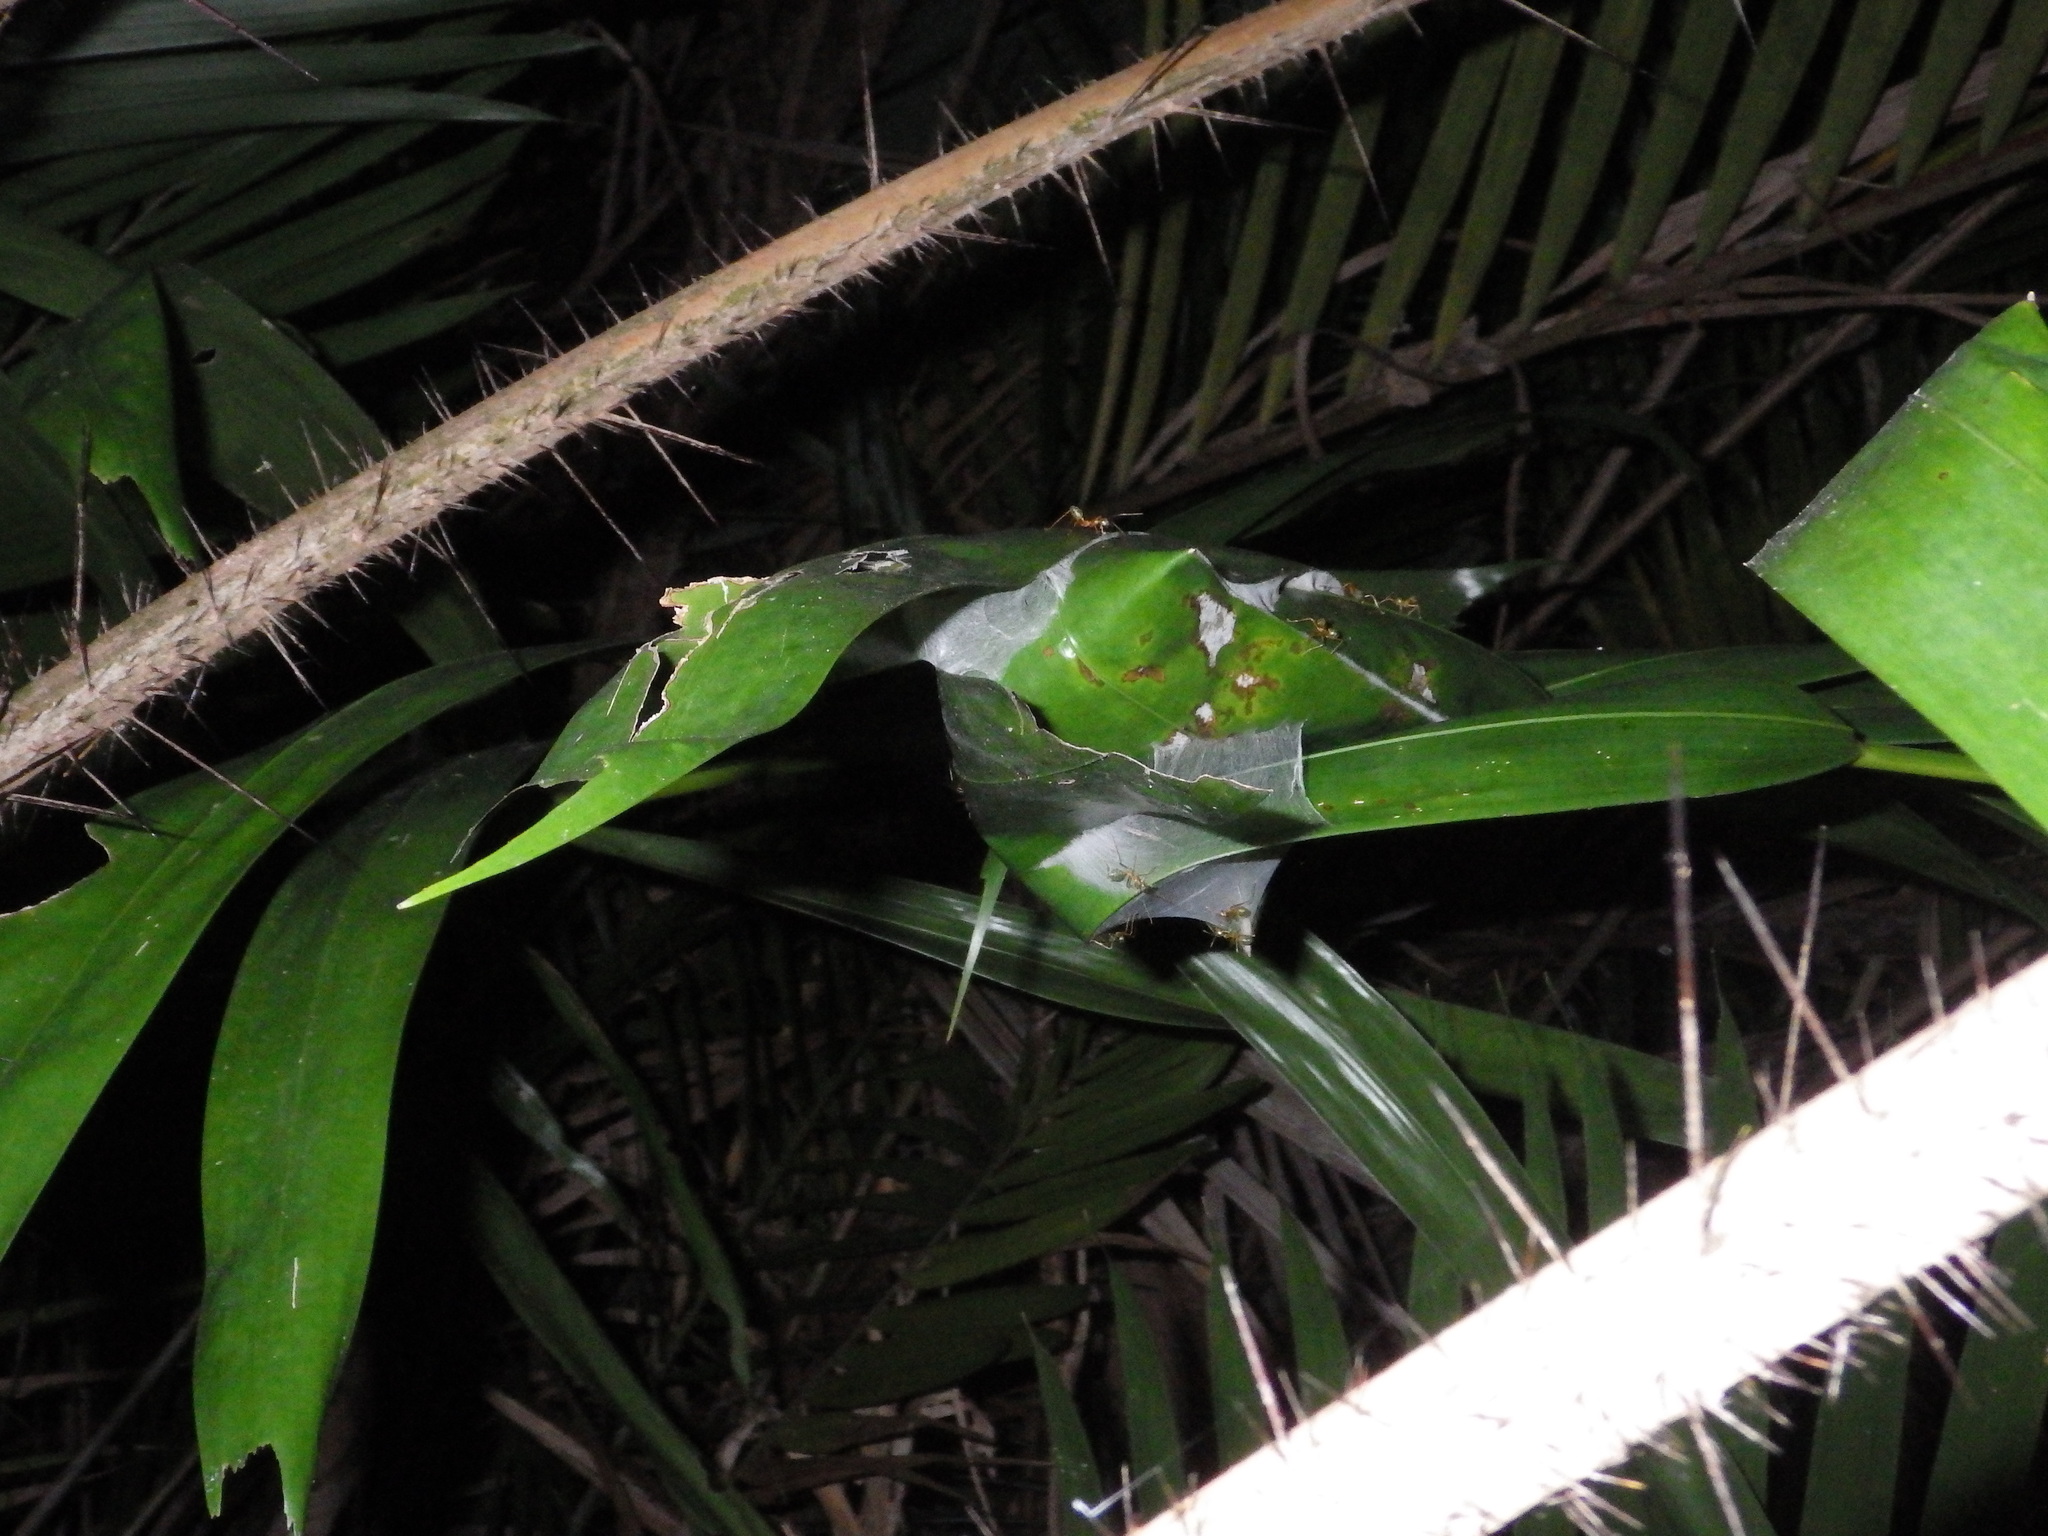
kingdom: Animalia
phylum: Arthropoda
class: Insecta
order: Hymenoptera
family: Formicidae
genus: Oecophylla
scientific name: Oecophylla smaragdina
